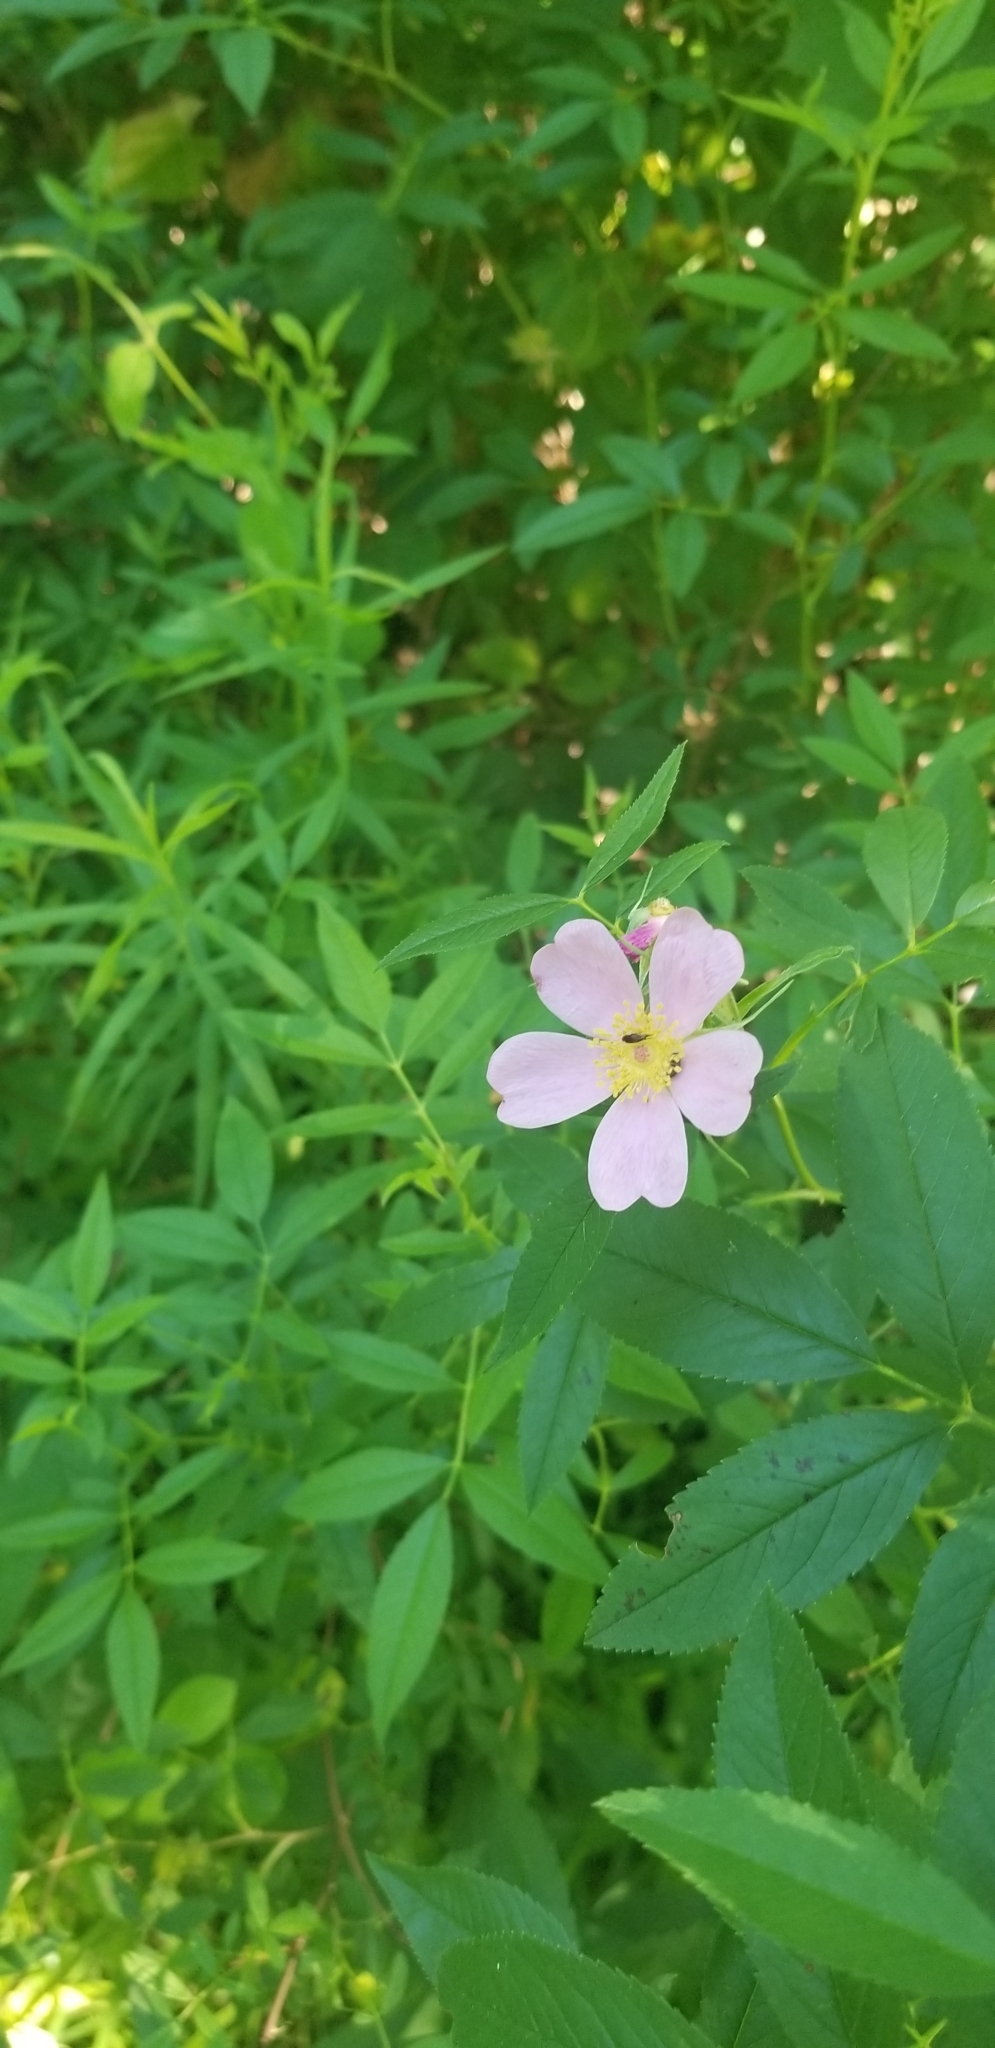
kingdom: Plantae
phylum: Tracheophyta
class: Magnoliopsida
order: Rosales
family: Rosaceae
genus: Rosa
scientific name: Rosa virginiana
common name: Virginian rose
